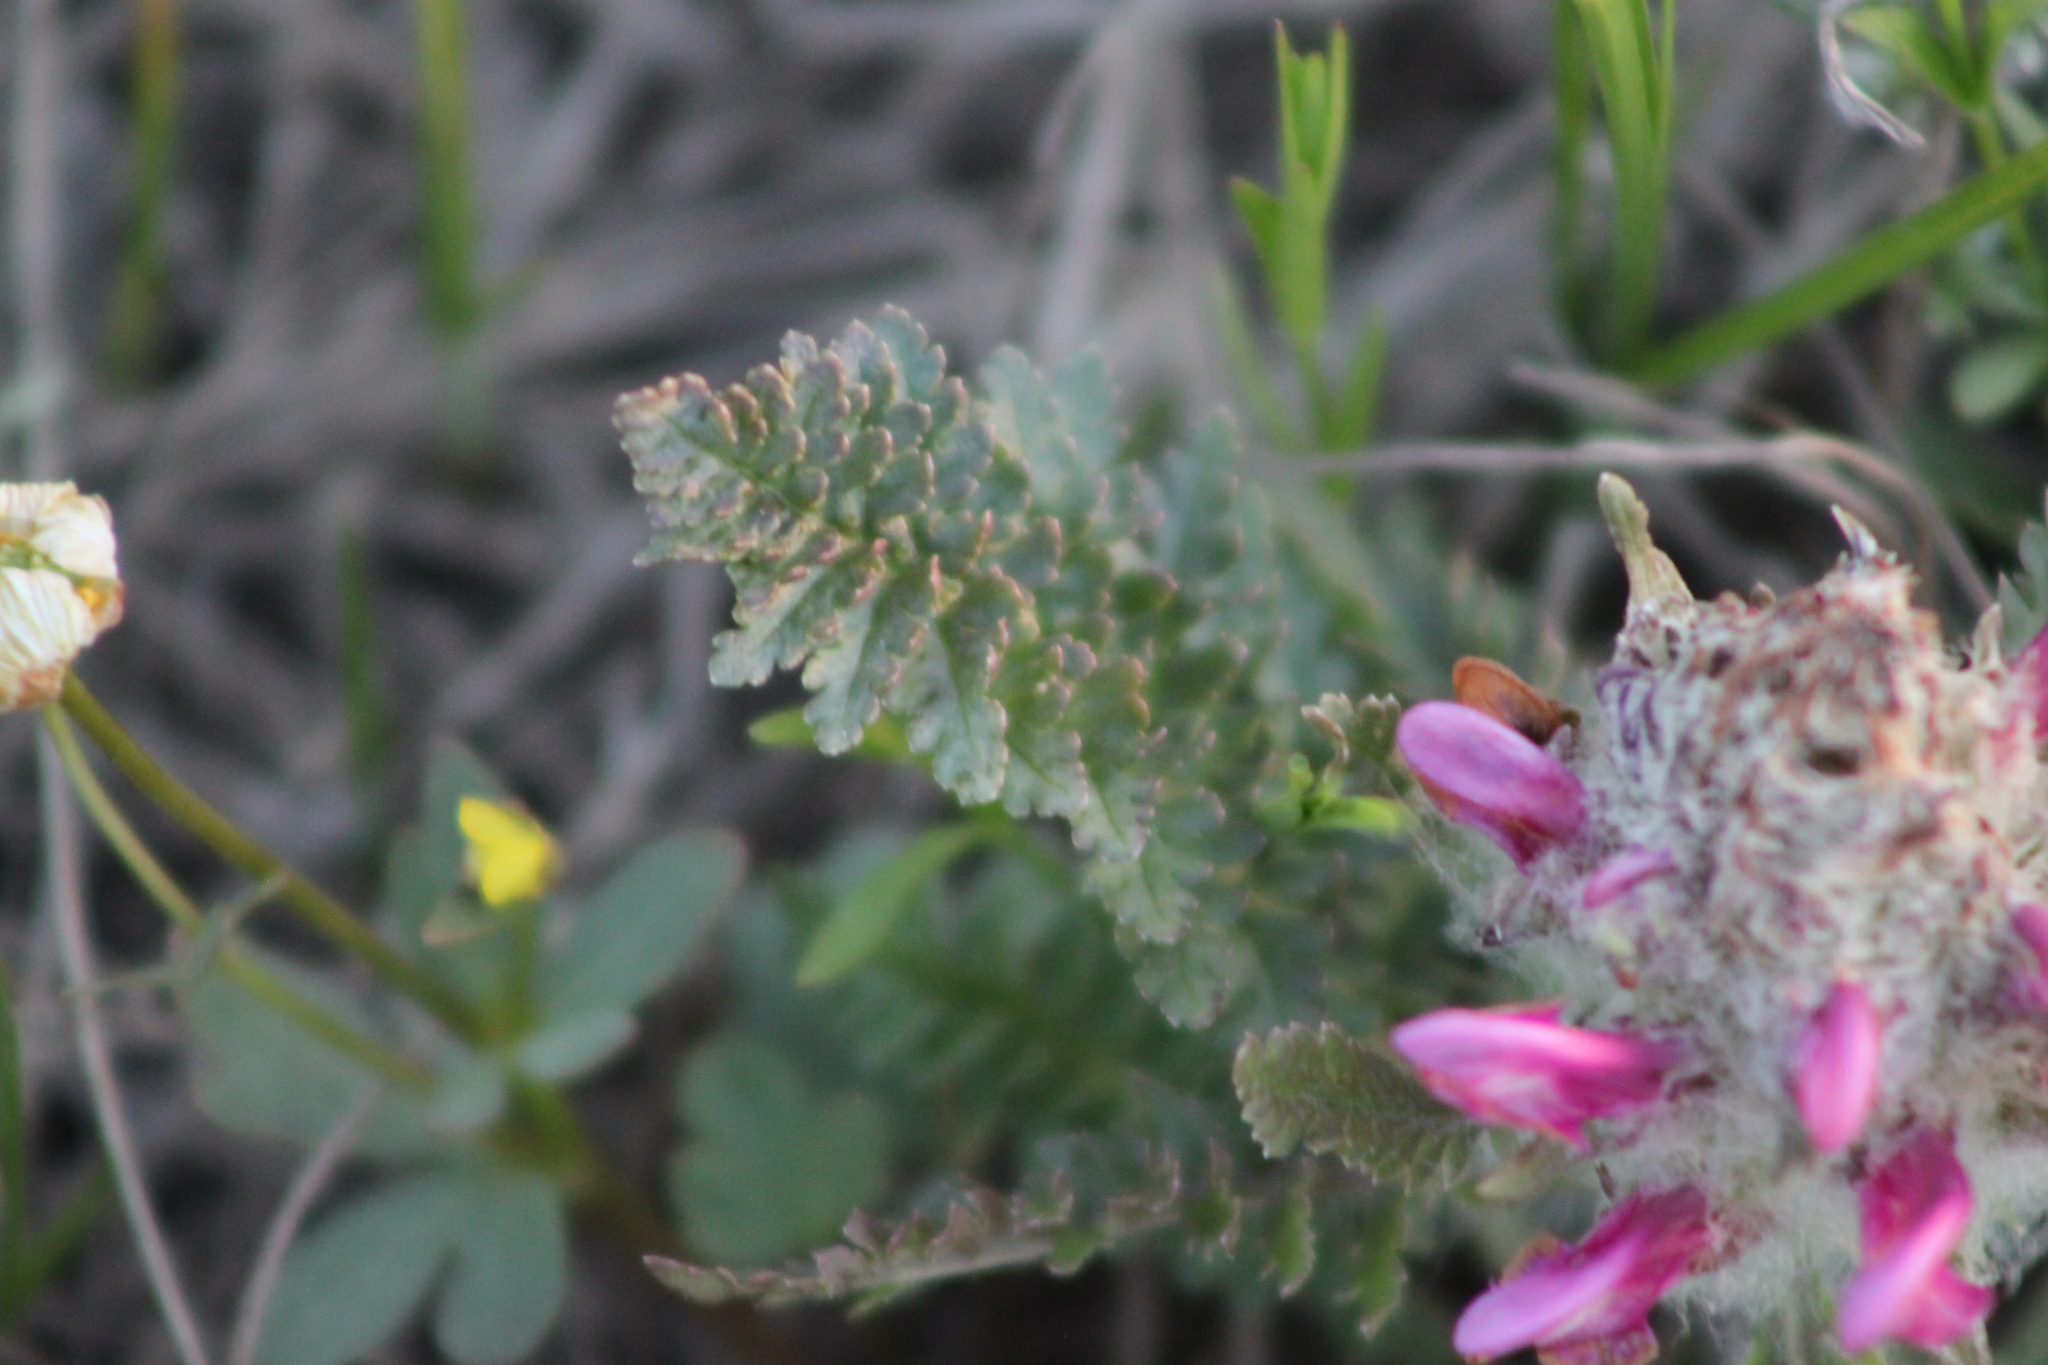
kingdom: Plantae
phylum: Tracheophyta
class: Magnoliopsida
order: Lamiales
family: Orobanchaceae
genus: Pedicularis
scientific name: Pedicularis dasystachys
